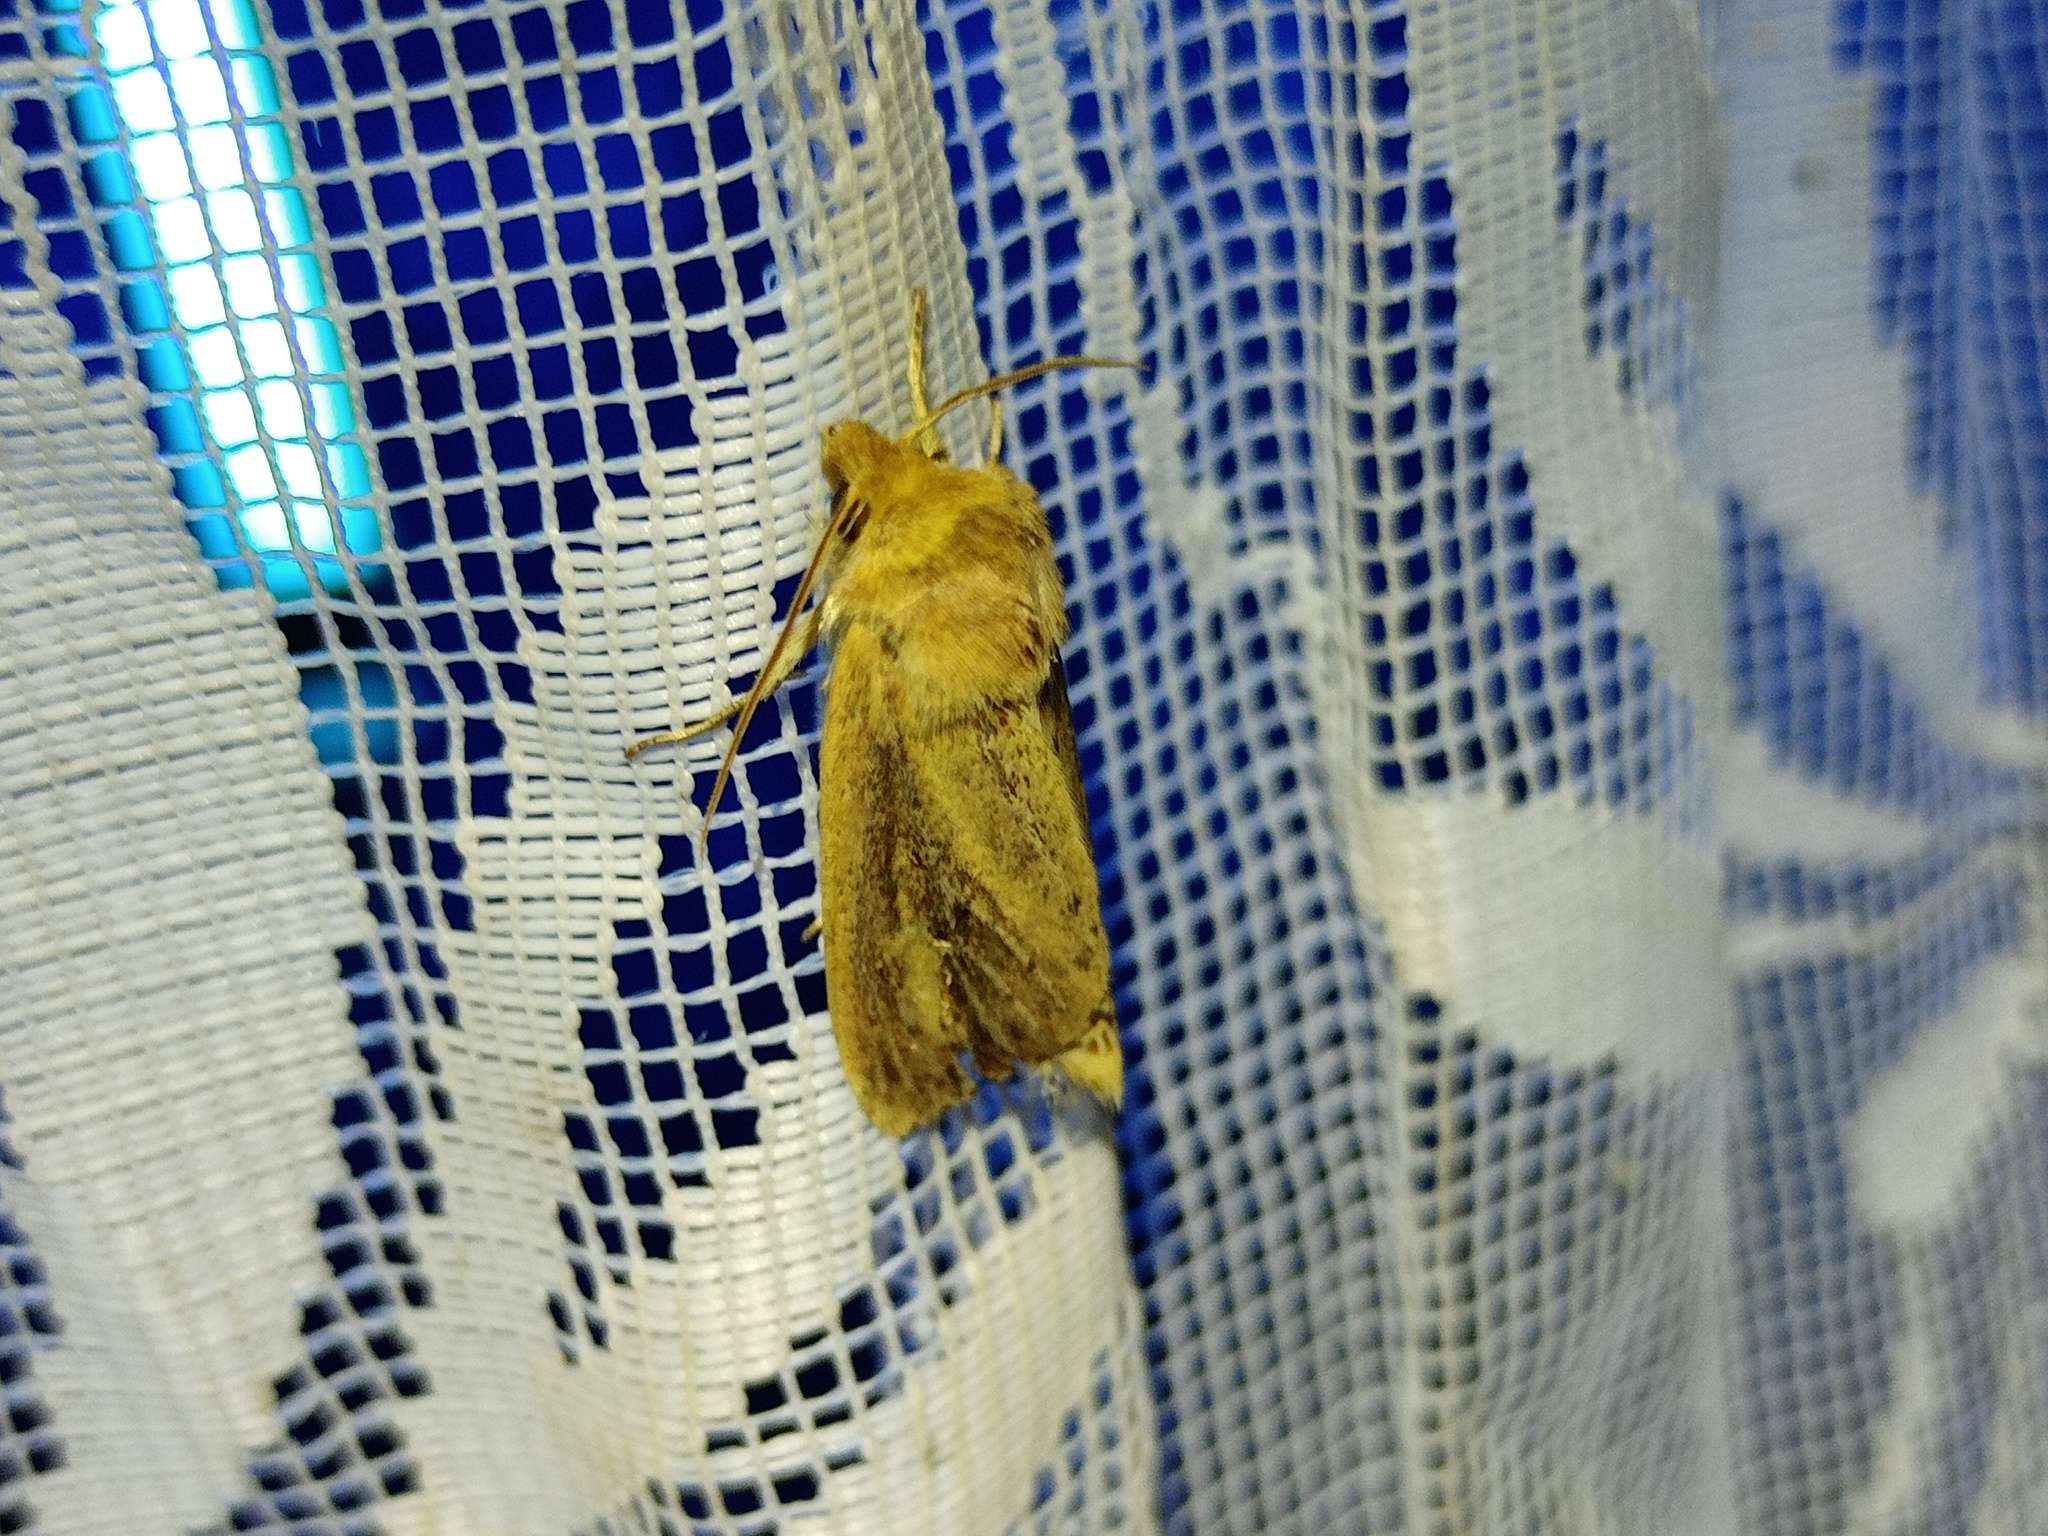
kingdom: Animalia
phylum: Arthropoda
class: Insecta
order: Lepidoptera
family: Noctuidae
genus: Globia
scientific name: Globia sparganii
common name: Webb's wainscot
